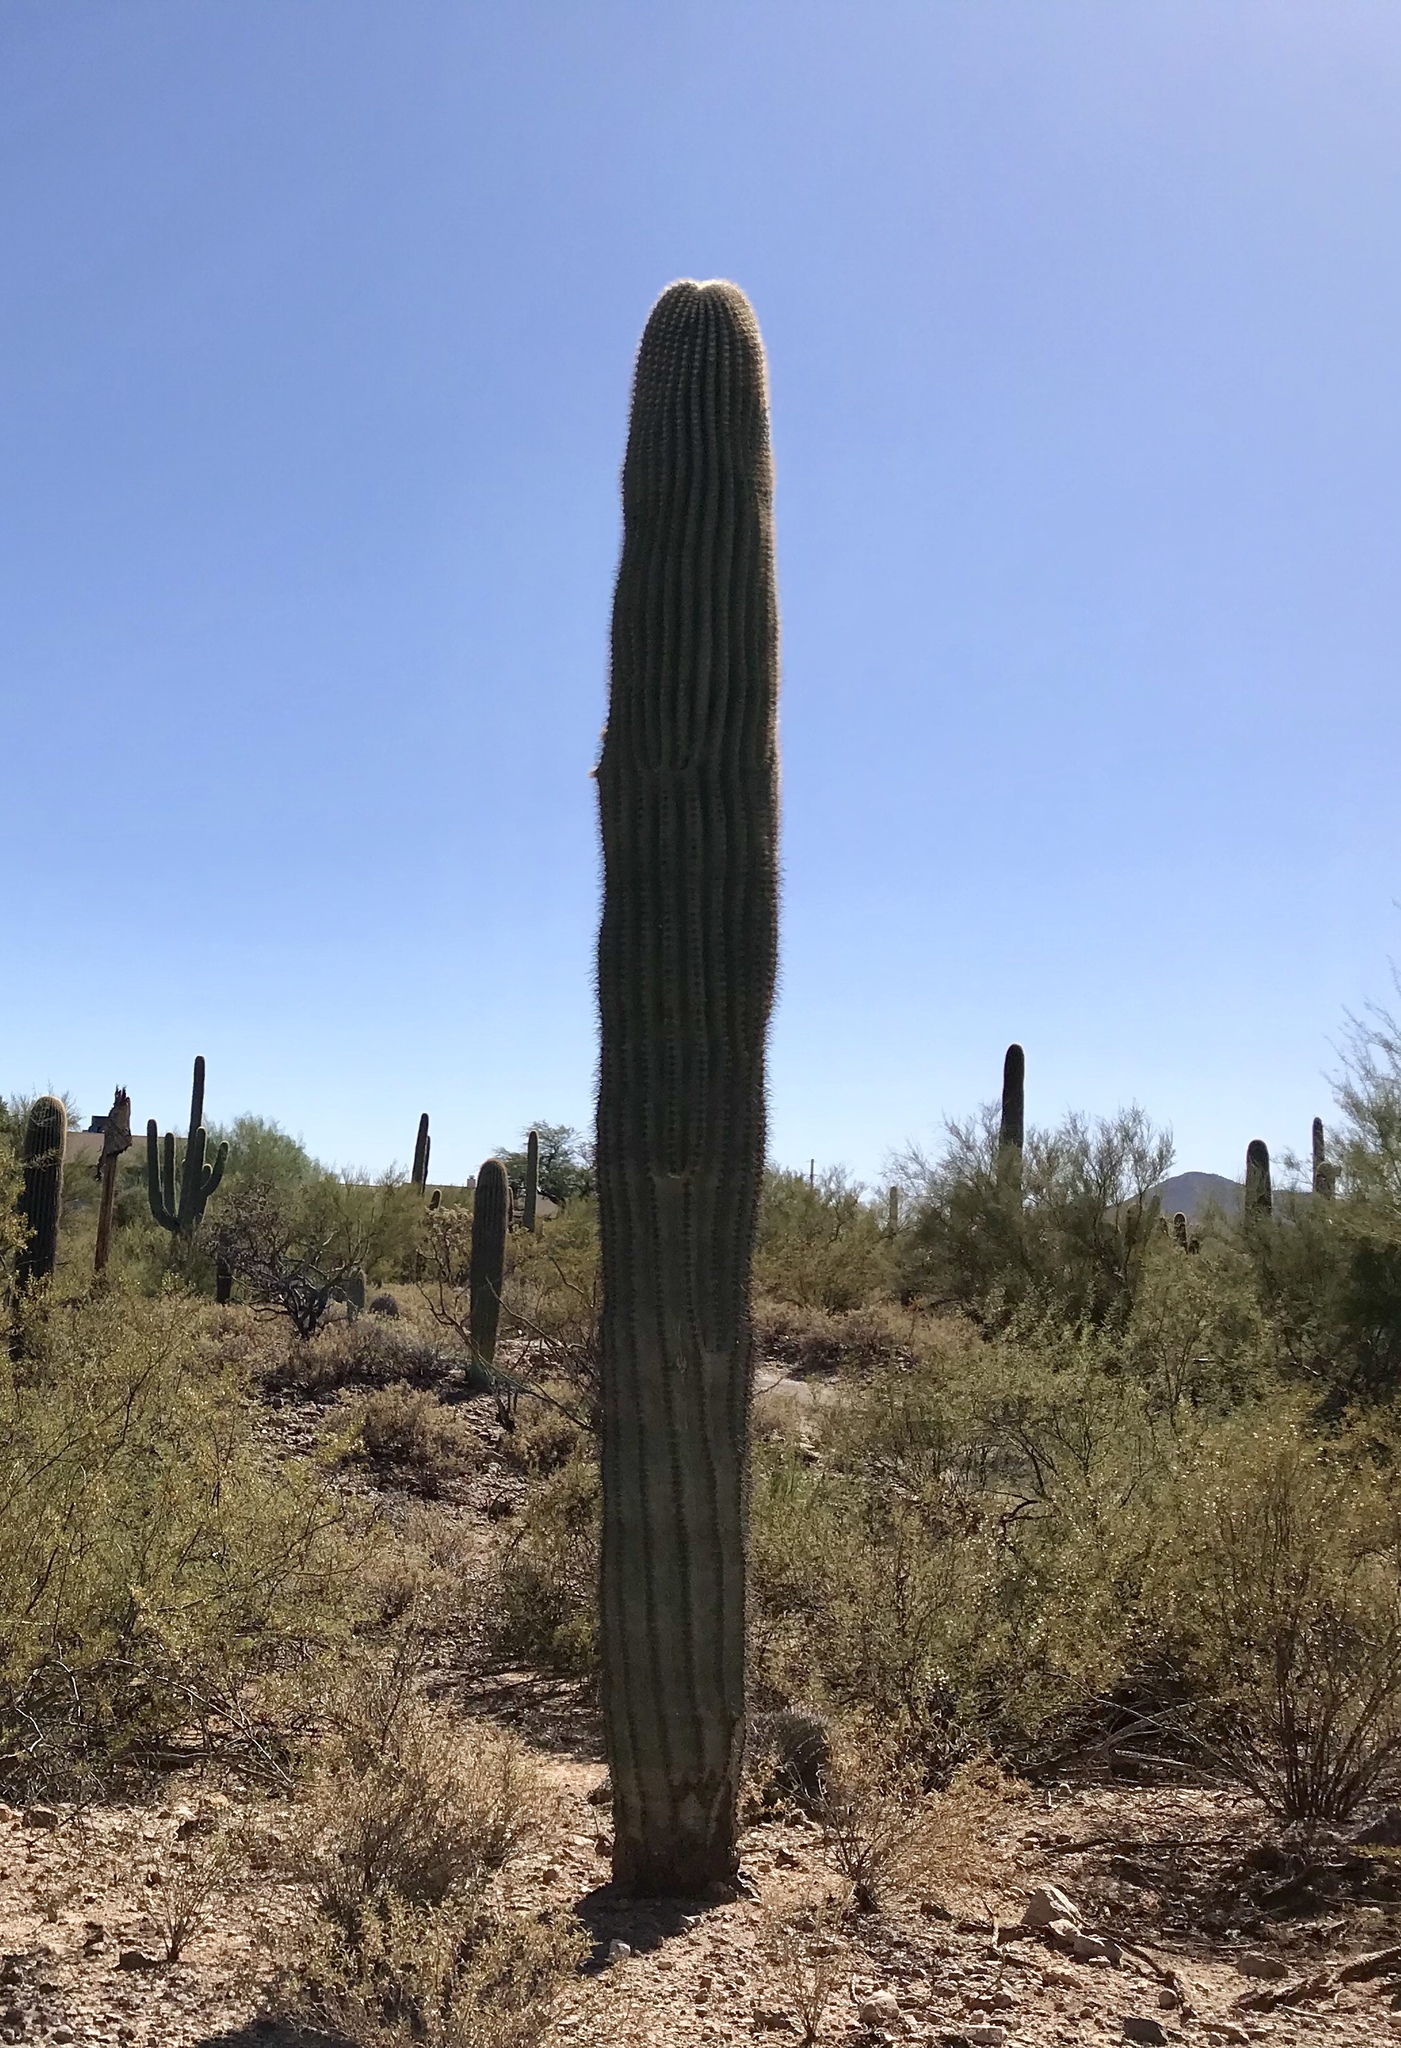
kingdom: Plantae
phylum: Tracheophyta
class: Magnoliopsida
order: Caryophyllales
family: Cactaceae
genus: Carnegiea
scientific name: Carnegiea gigantea
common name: Saguaro
